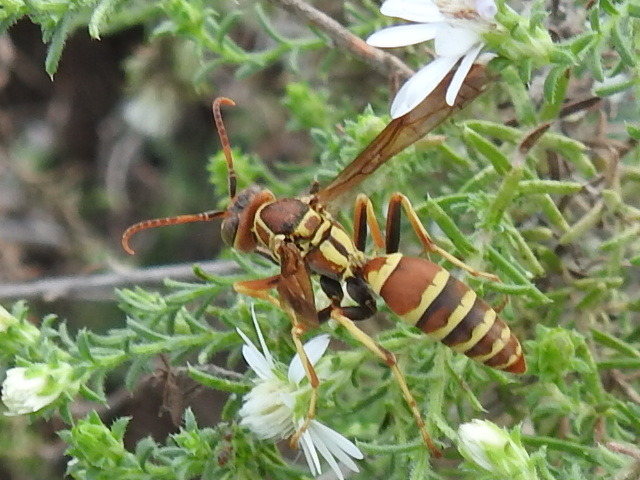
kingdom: Animalia
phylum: Arthropoda
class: Insecta
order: Hymenoptera
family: Eumenidae
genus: Polistes
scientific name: Polistes dorsalis
